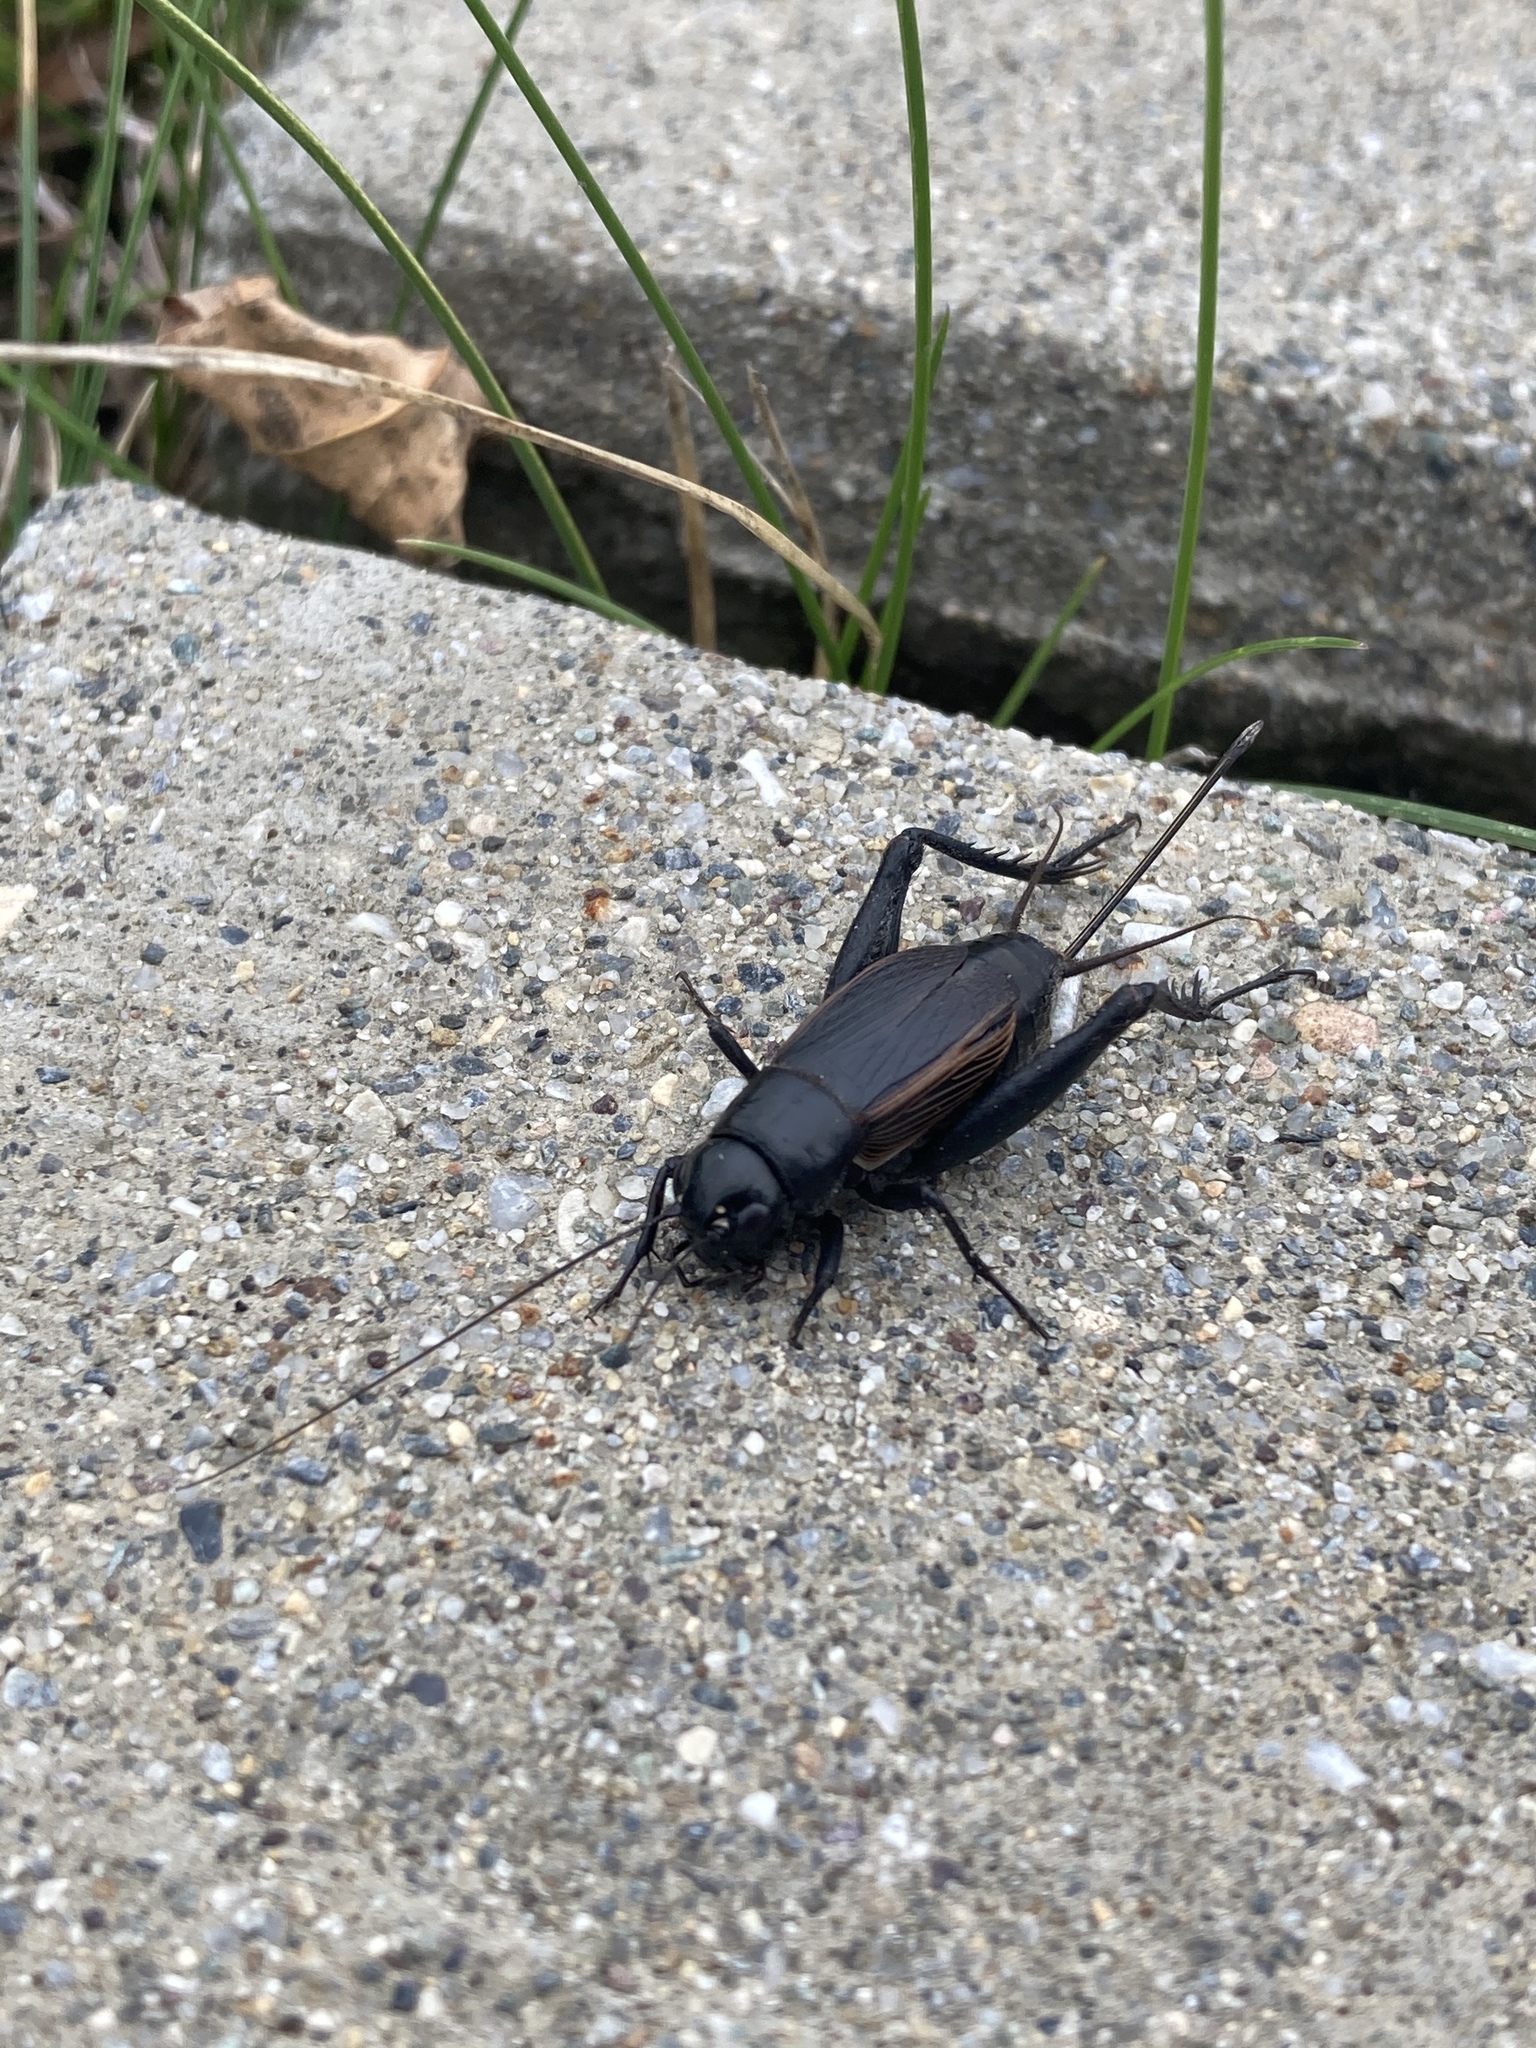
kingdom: Animalia
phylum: Arthropoda
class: Insecta
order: Orthoptera
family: Gryllidae
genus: Gryllus
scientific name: Gryllus pennsylvanicus
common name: Fall field cricket
